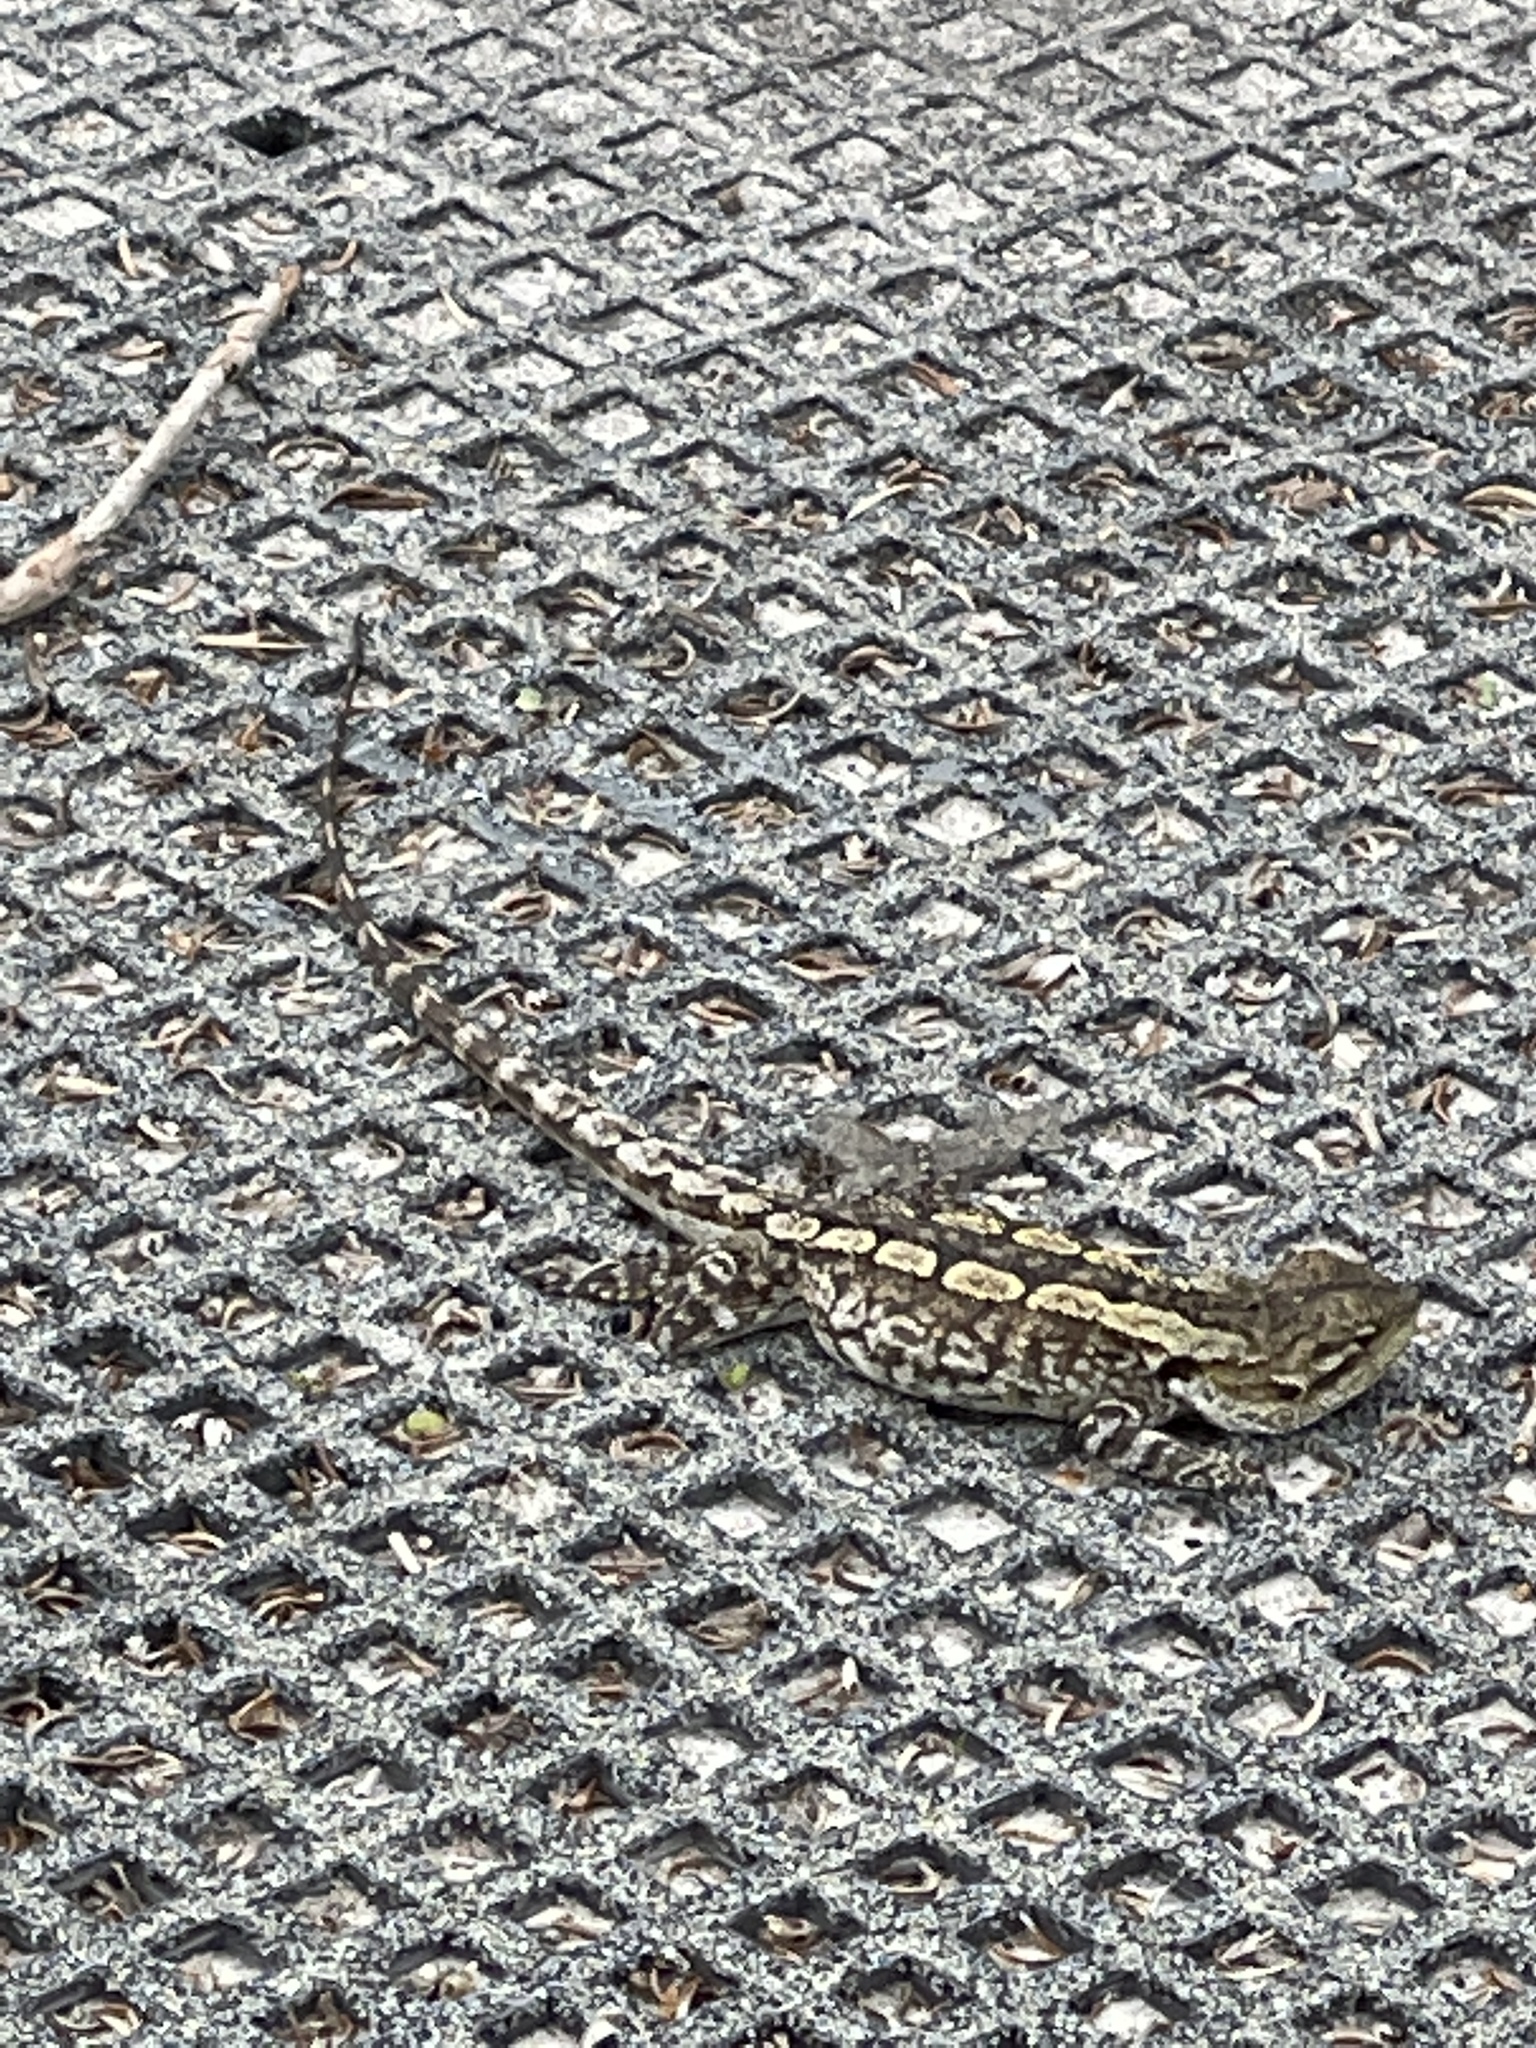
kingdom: Animalia
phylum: Chordata
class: Squamata
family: Agamidae
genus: Amphibolurus
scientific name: Amphibolurus muricatus
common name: Jacky lizard
